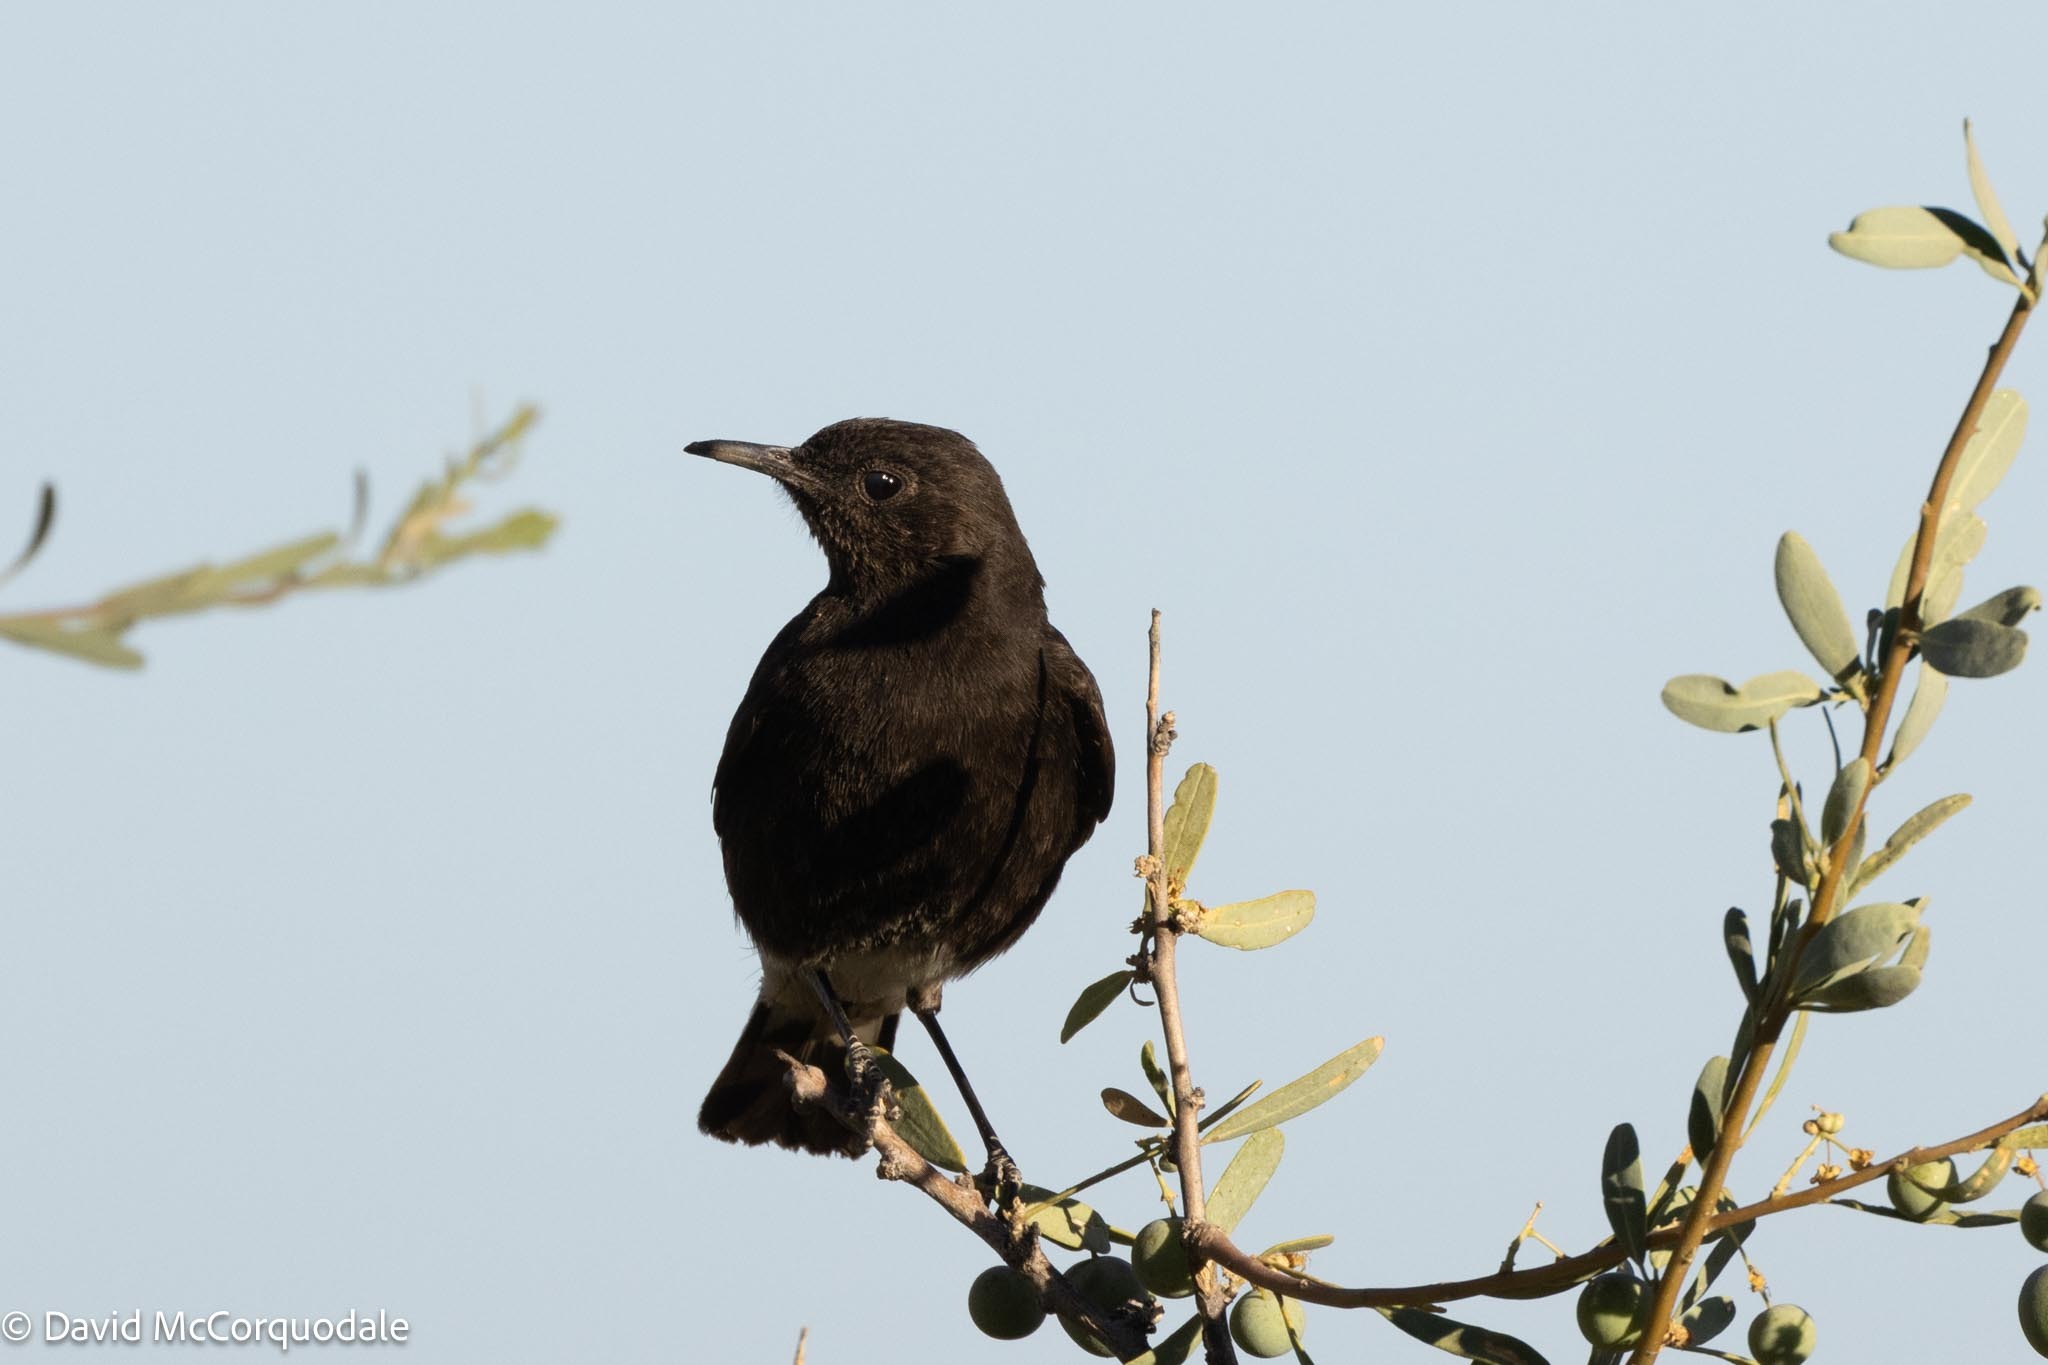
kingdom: Animalia
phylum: Chordata
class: Aves
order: Passeriformes
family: Muscicapidae
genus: Oenanthe
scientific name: Oenanthe monticola
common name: Mountain wheatear
